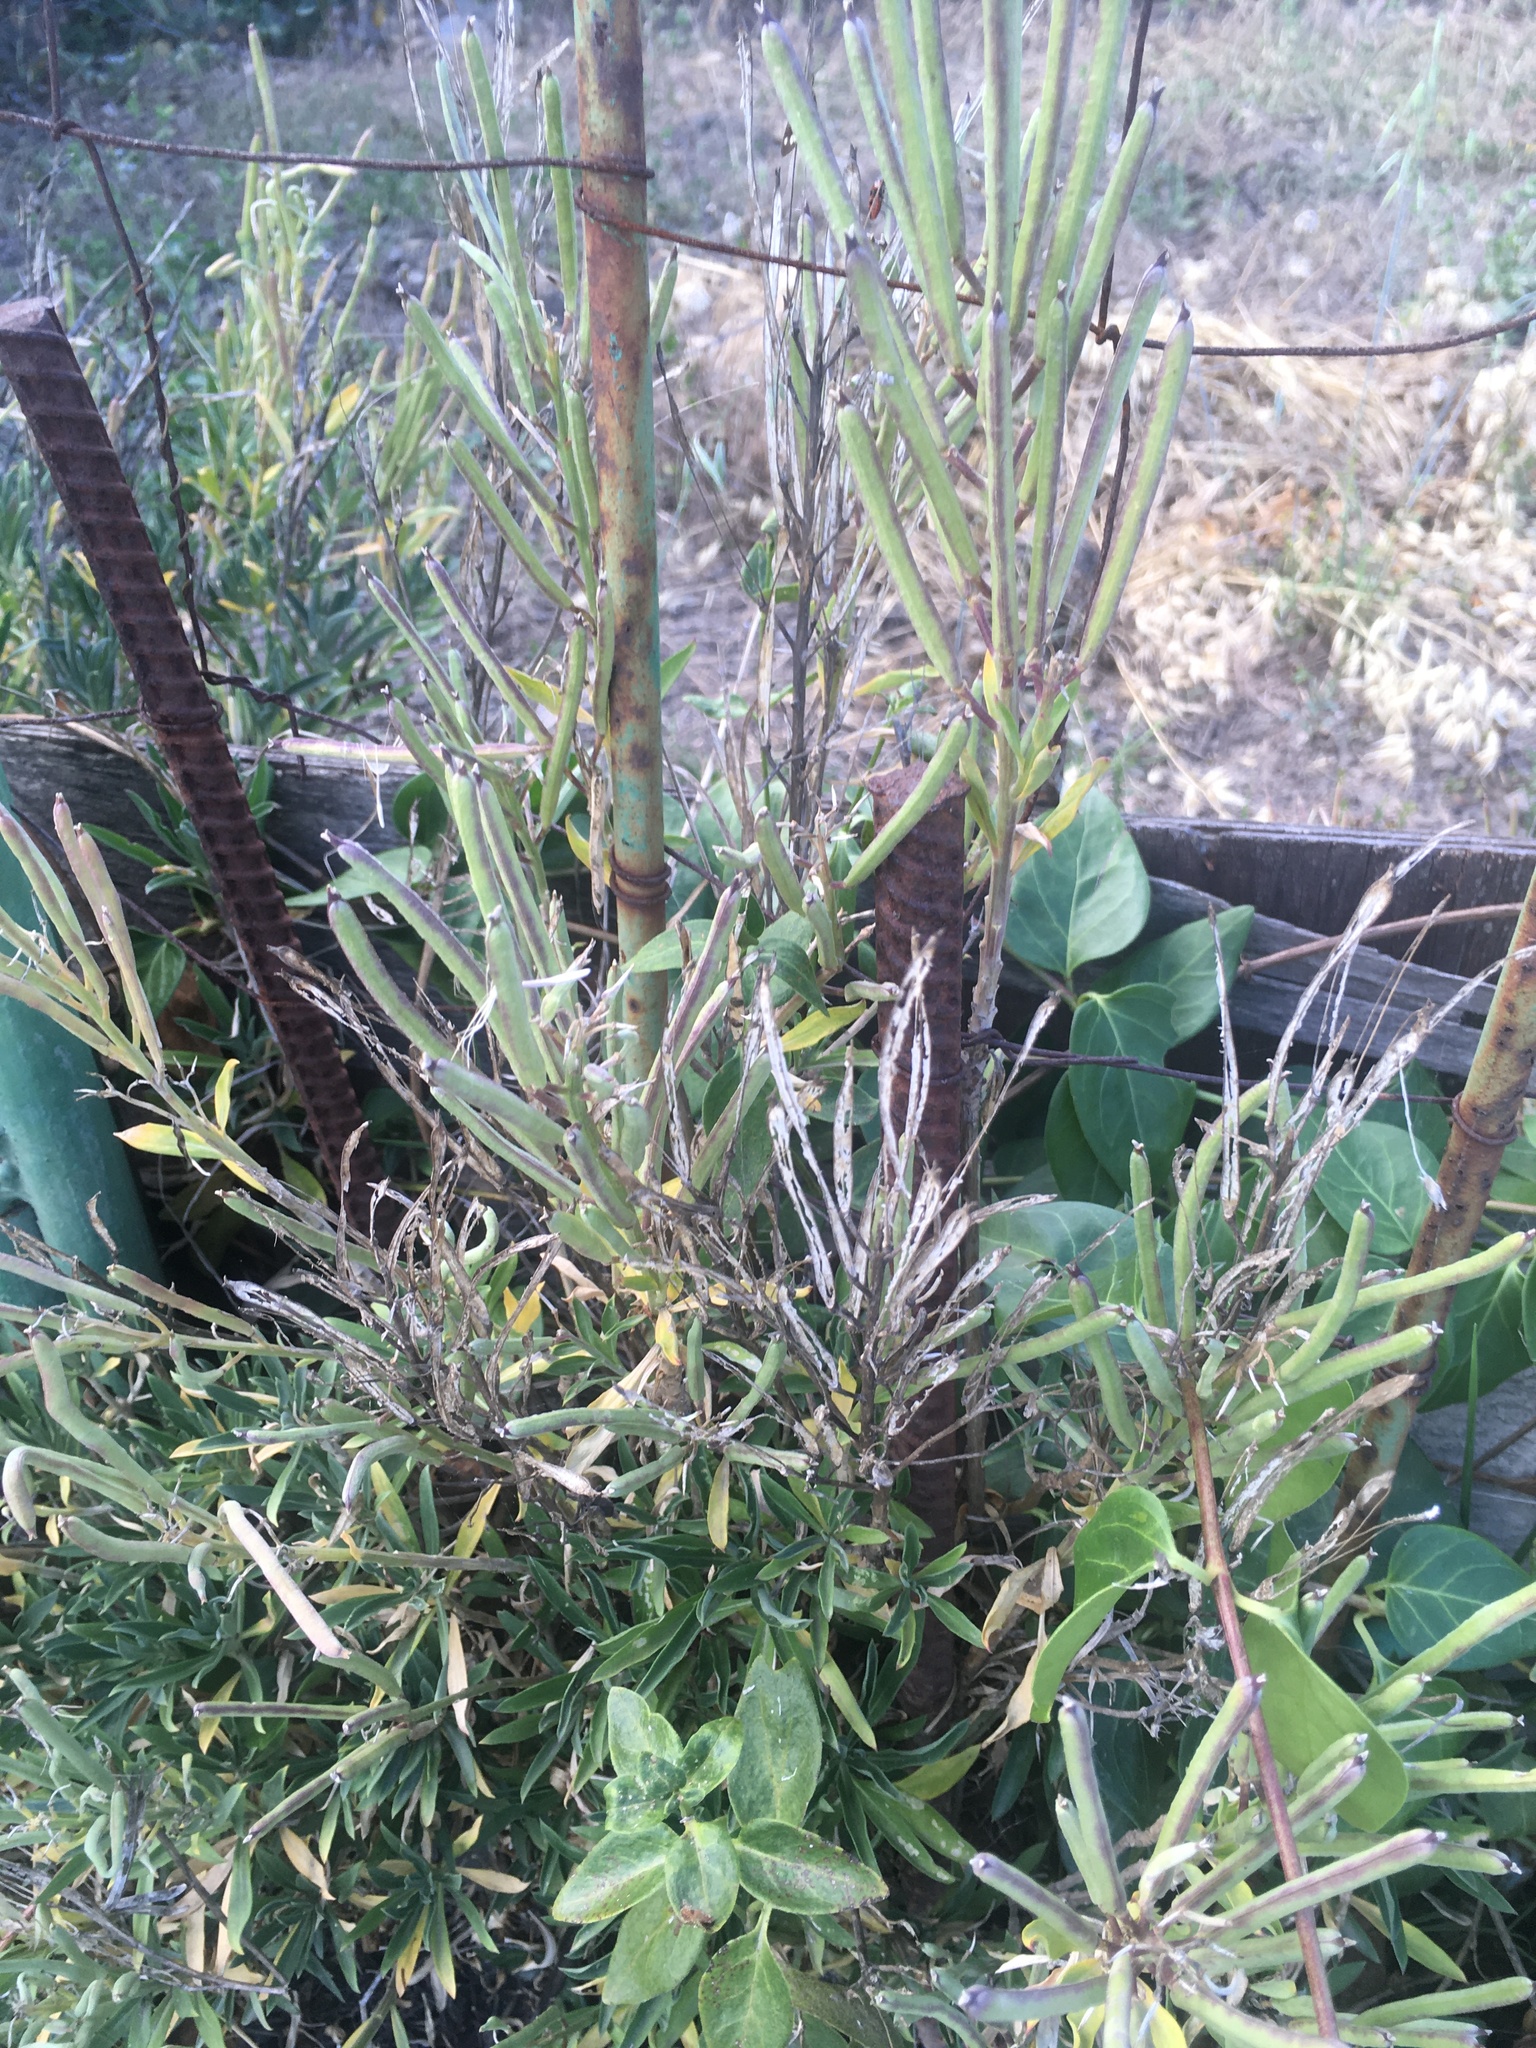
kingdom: Plantae
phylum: Tracheophyta
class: Magnoliopsida
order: Brassicales
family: Brassicaceae
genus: Erysimum
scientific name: Erysimum cheiri
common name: Wallflower
